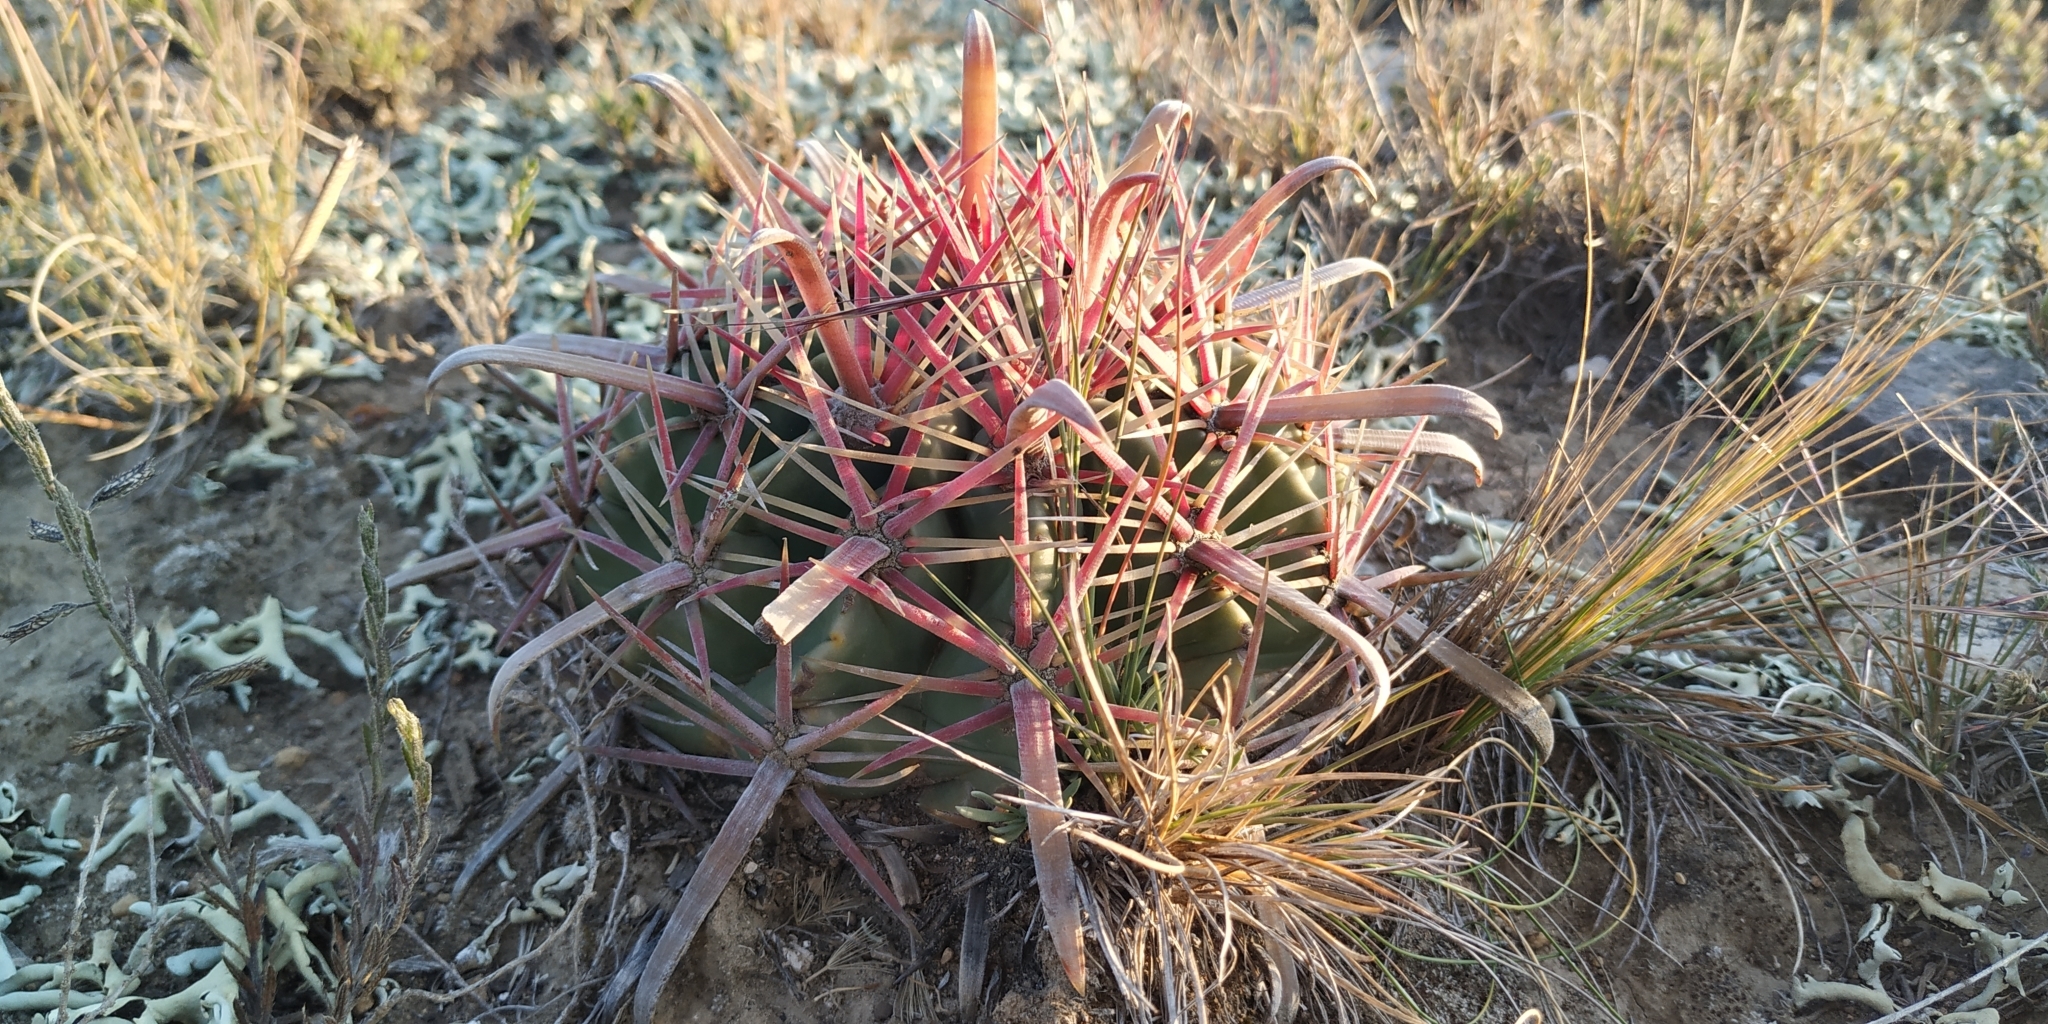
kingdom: Plantae
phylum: Tracheophyta
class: Magnoliopsida
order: Caryophyllales
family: Cactaceae
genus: Ferocactus
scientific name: Ferocactus latispinus
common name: Devil's-tongue cactus
